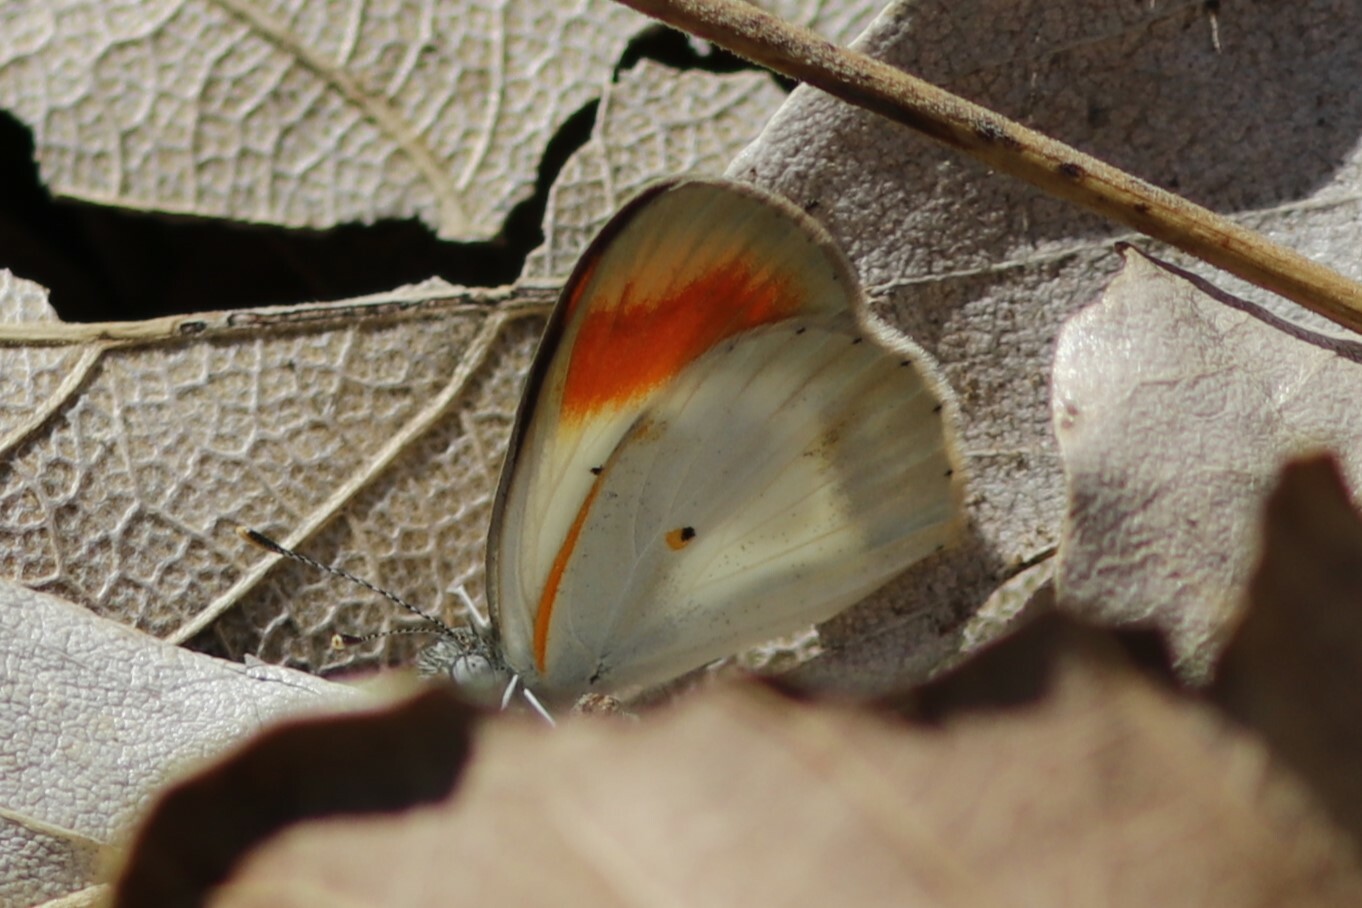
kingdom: Animalia
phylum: Arthropoda
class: Insecta
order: Lepidoptera
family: Pieridae
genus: Colotis
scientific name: Colotis pallene
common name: Bushveld orange tip
